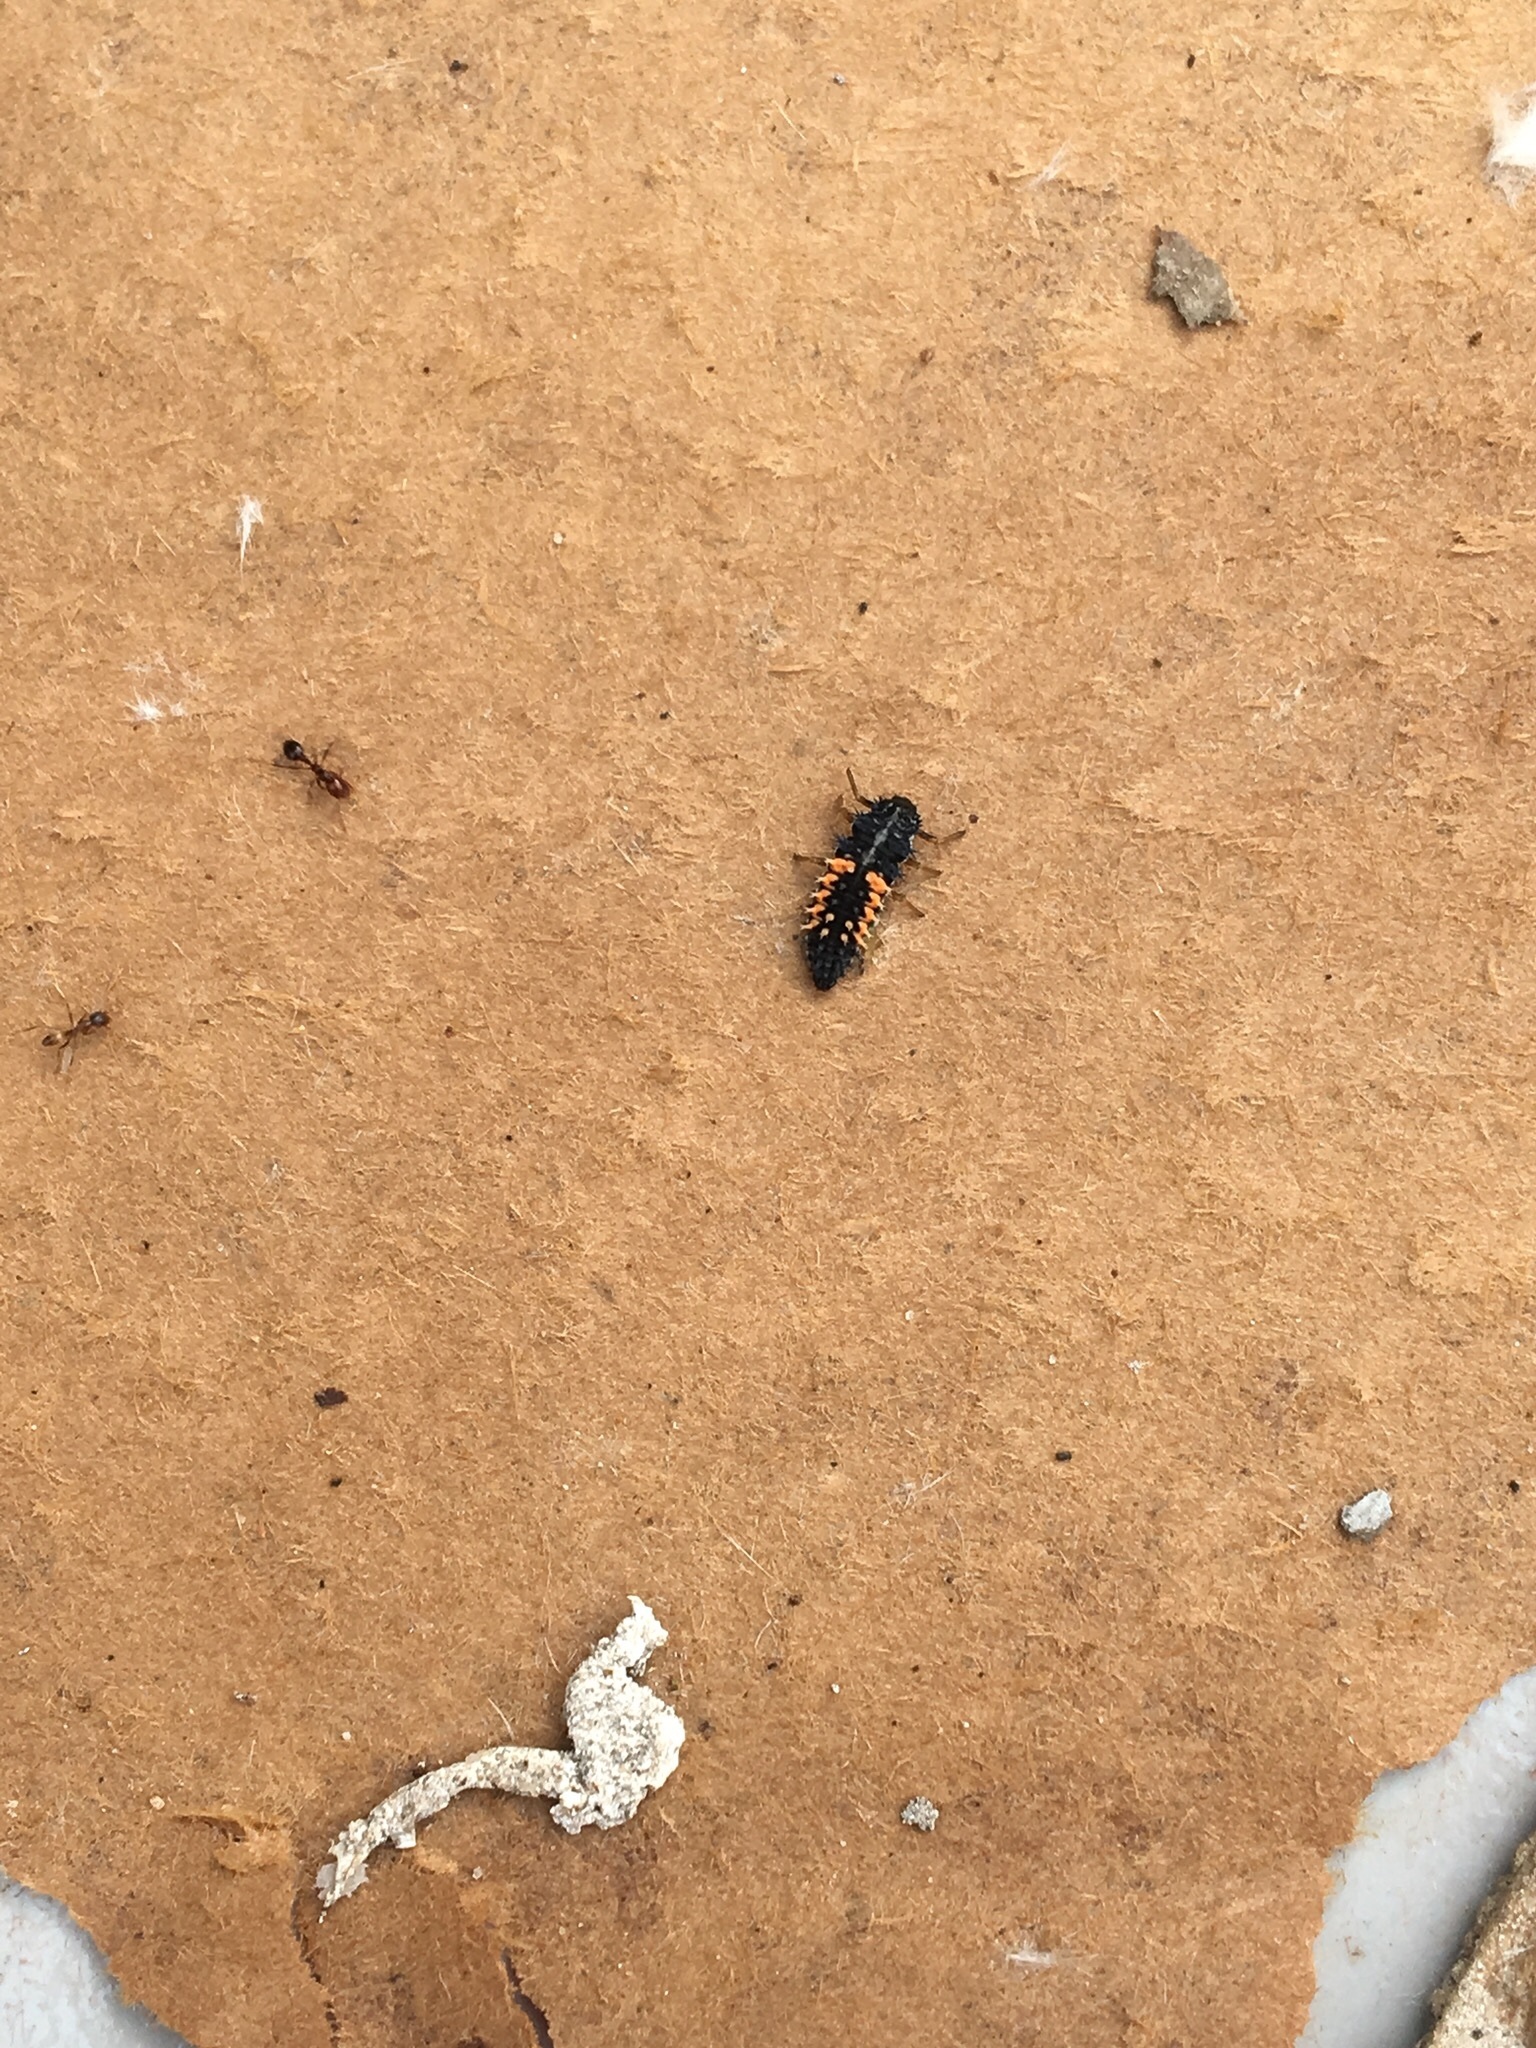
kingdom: Animalia
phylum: Arthropoda
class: Insecta
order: Coleoptera
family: Coccinellidae
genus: Harmonia
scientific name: Harmonia axyridis
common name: Harlequin ladybird
